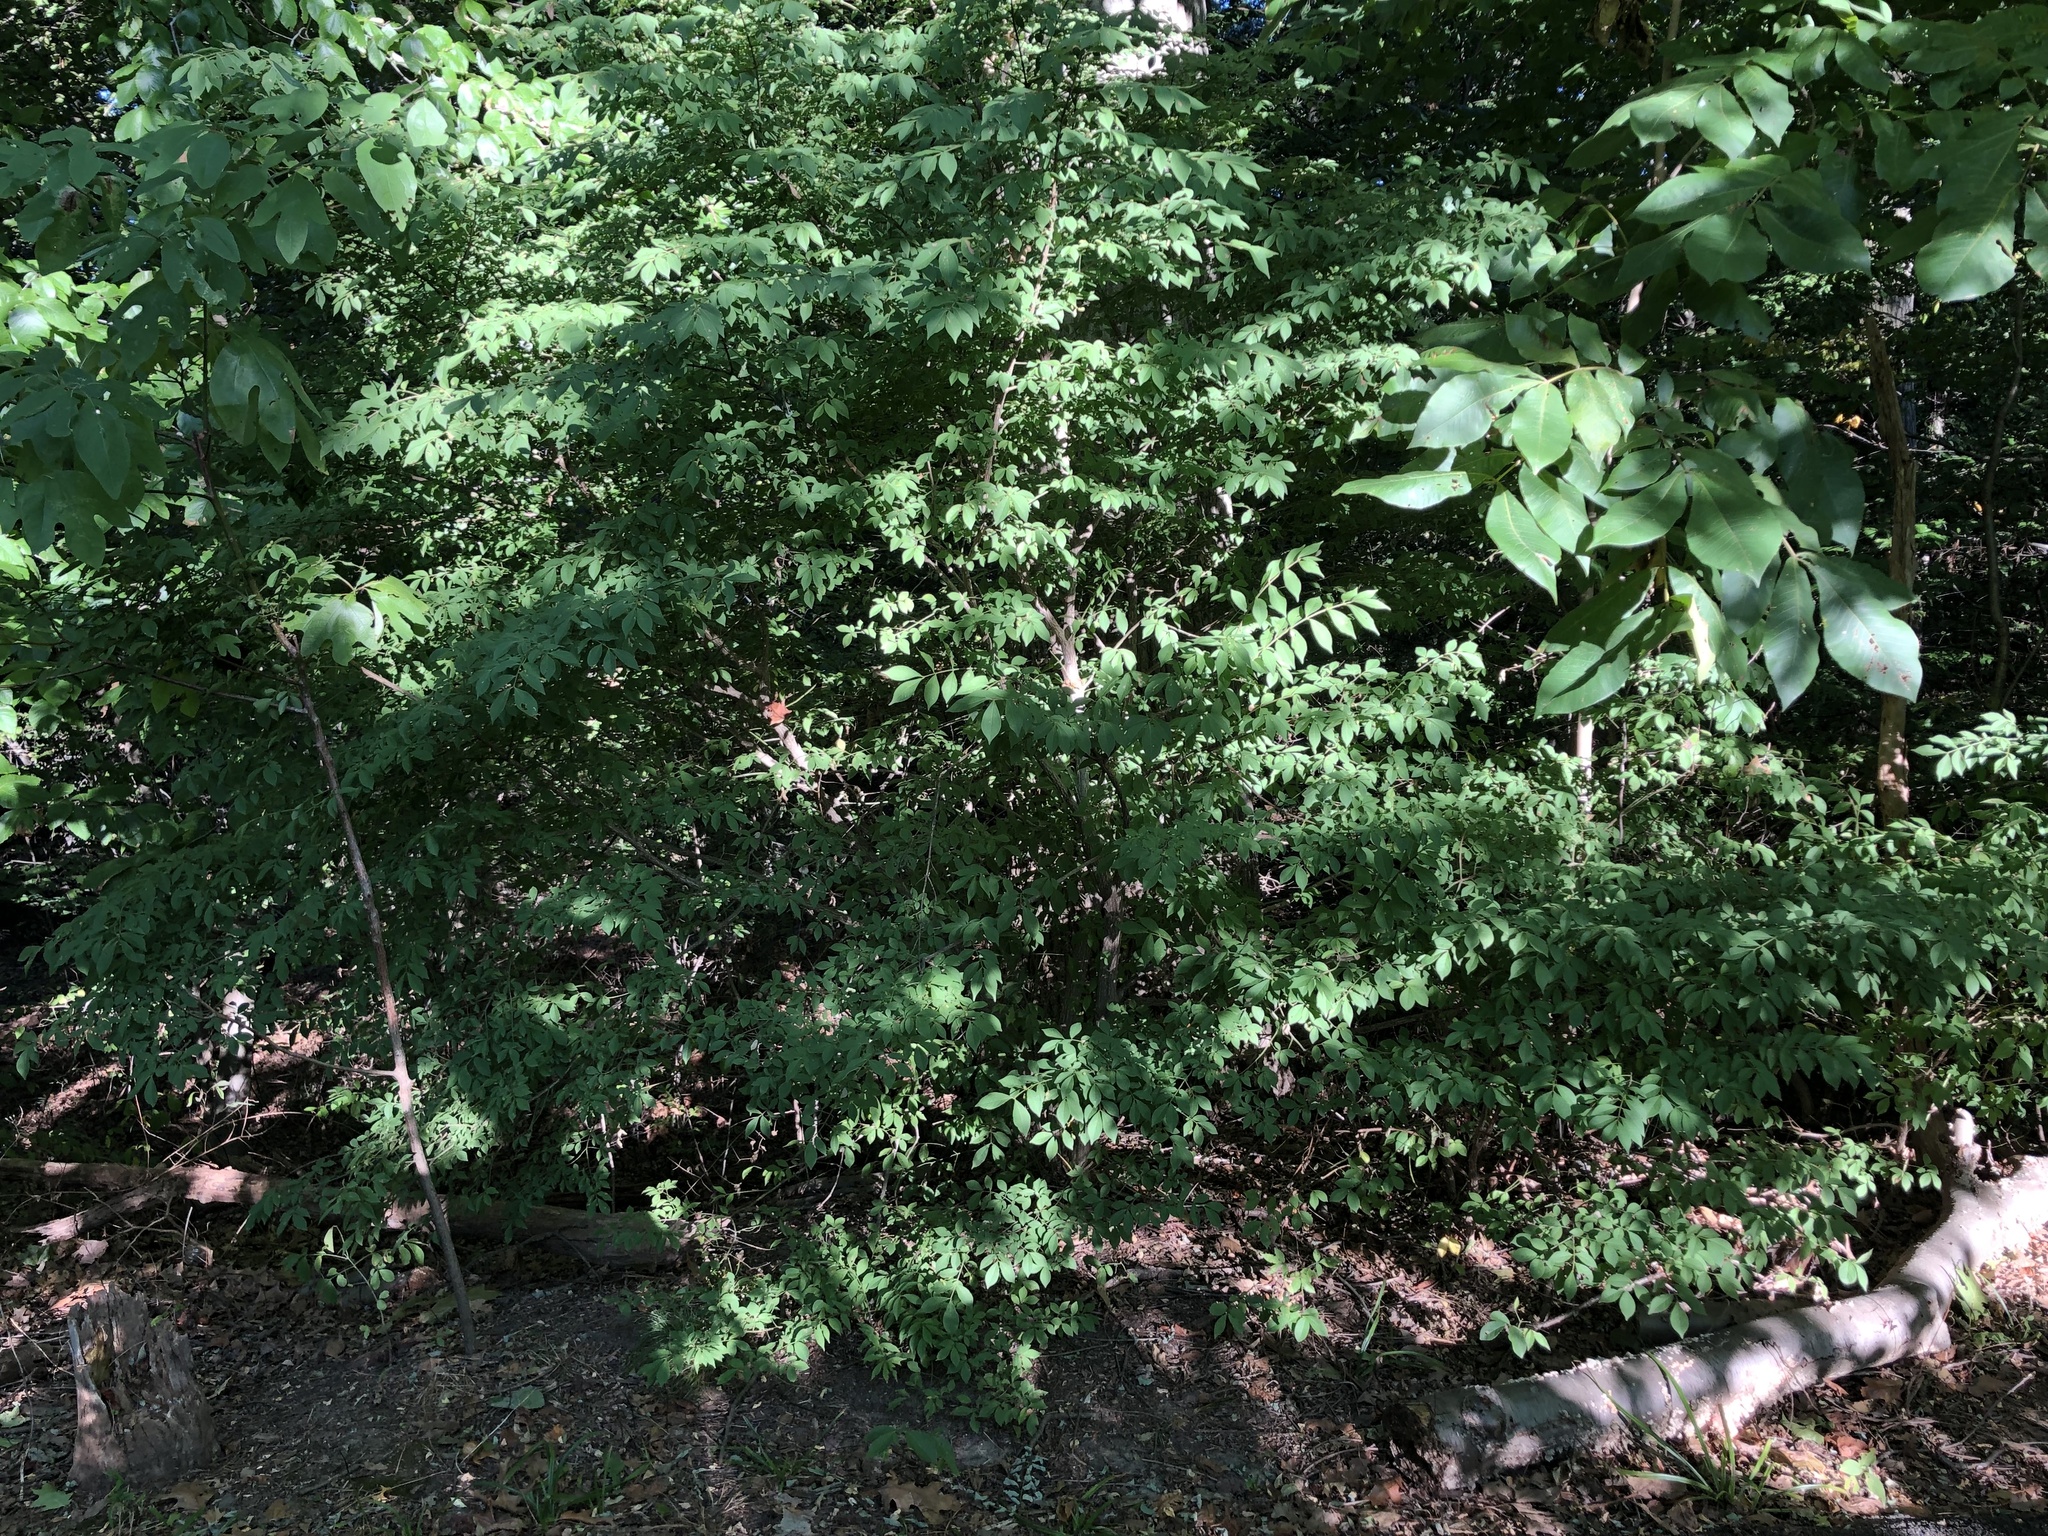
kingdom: Plantae
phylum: Tracheophyta
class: Magnoliopsida
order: Celastrales
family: Celastraceae
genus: Euonymus
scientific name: Euonymus alatus
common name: Winged euonymus
